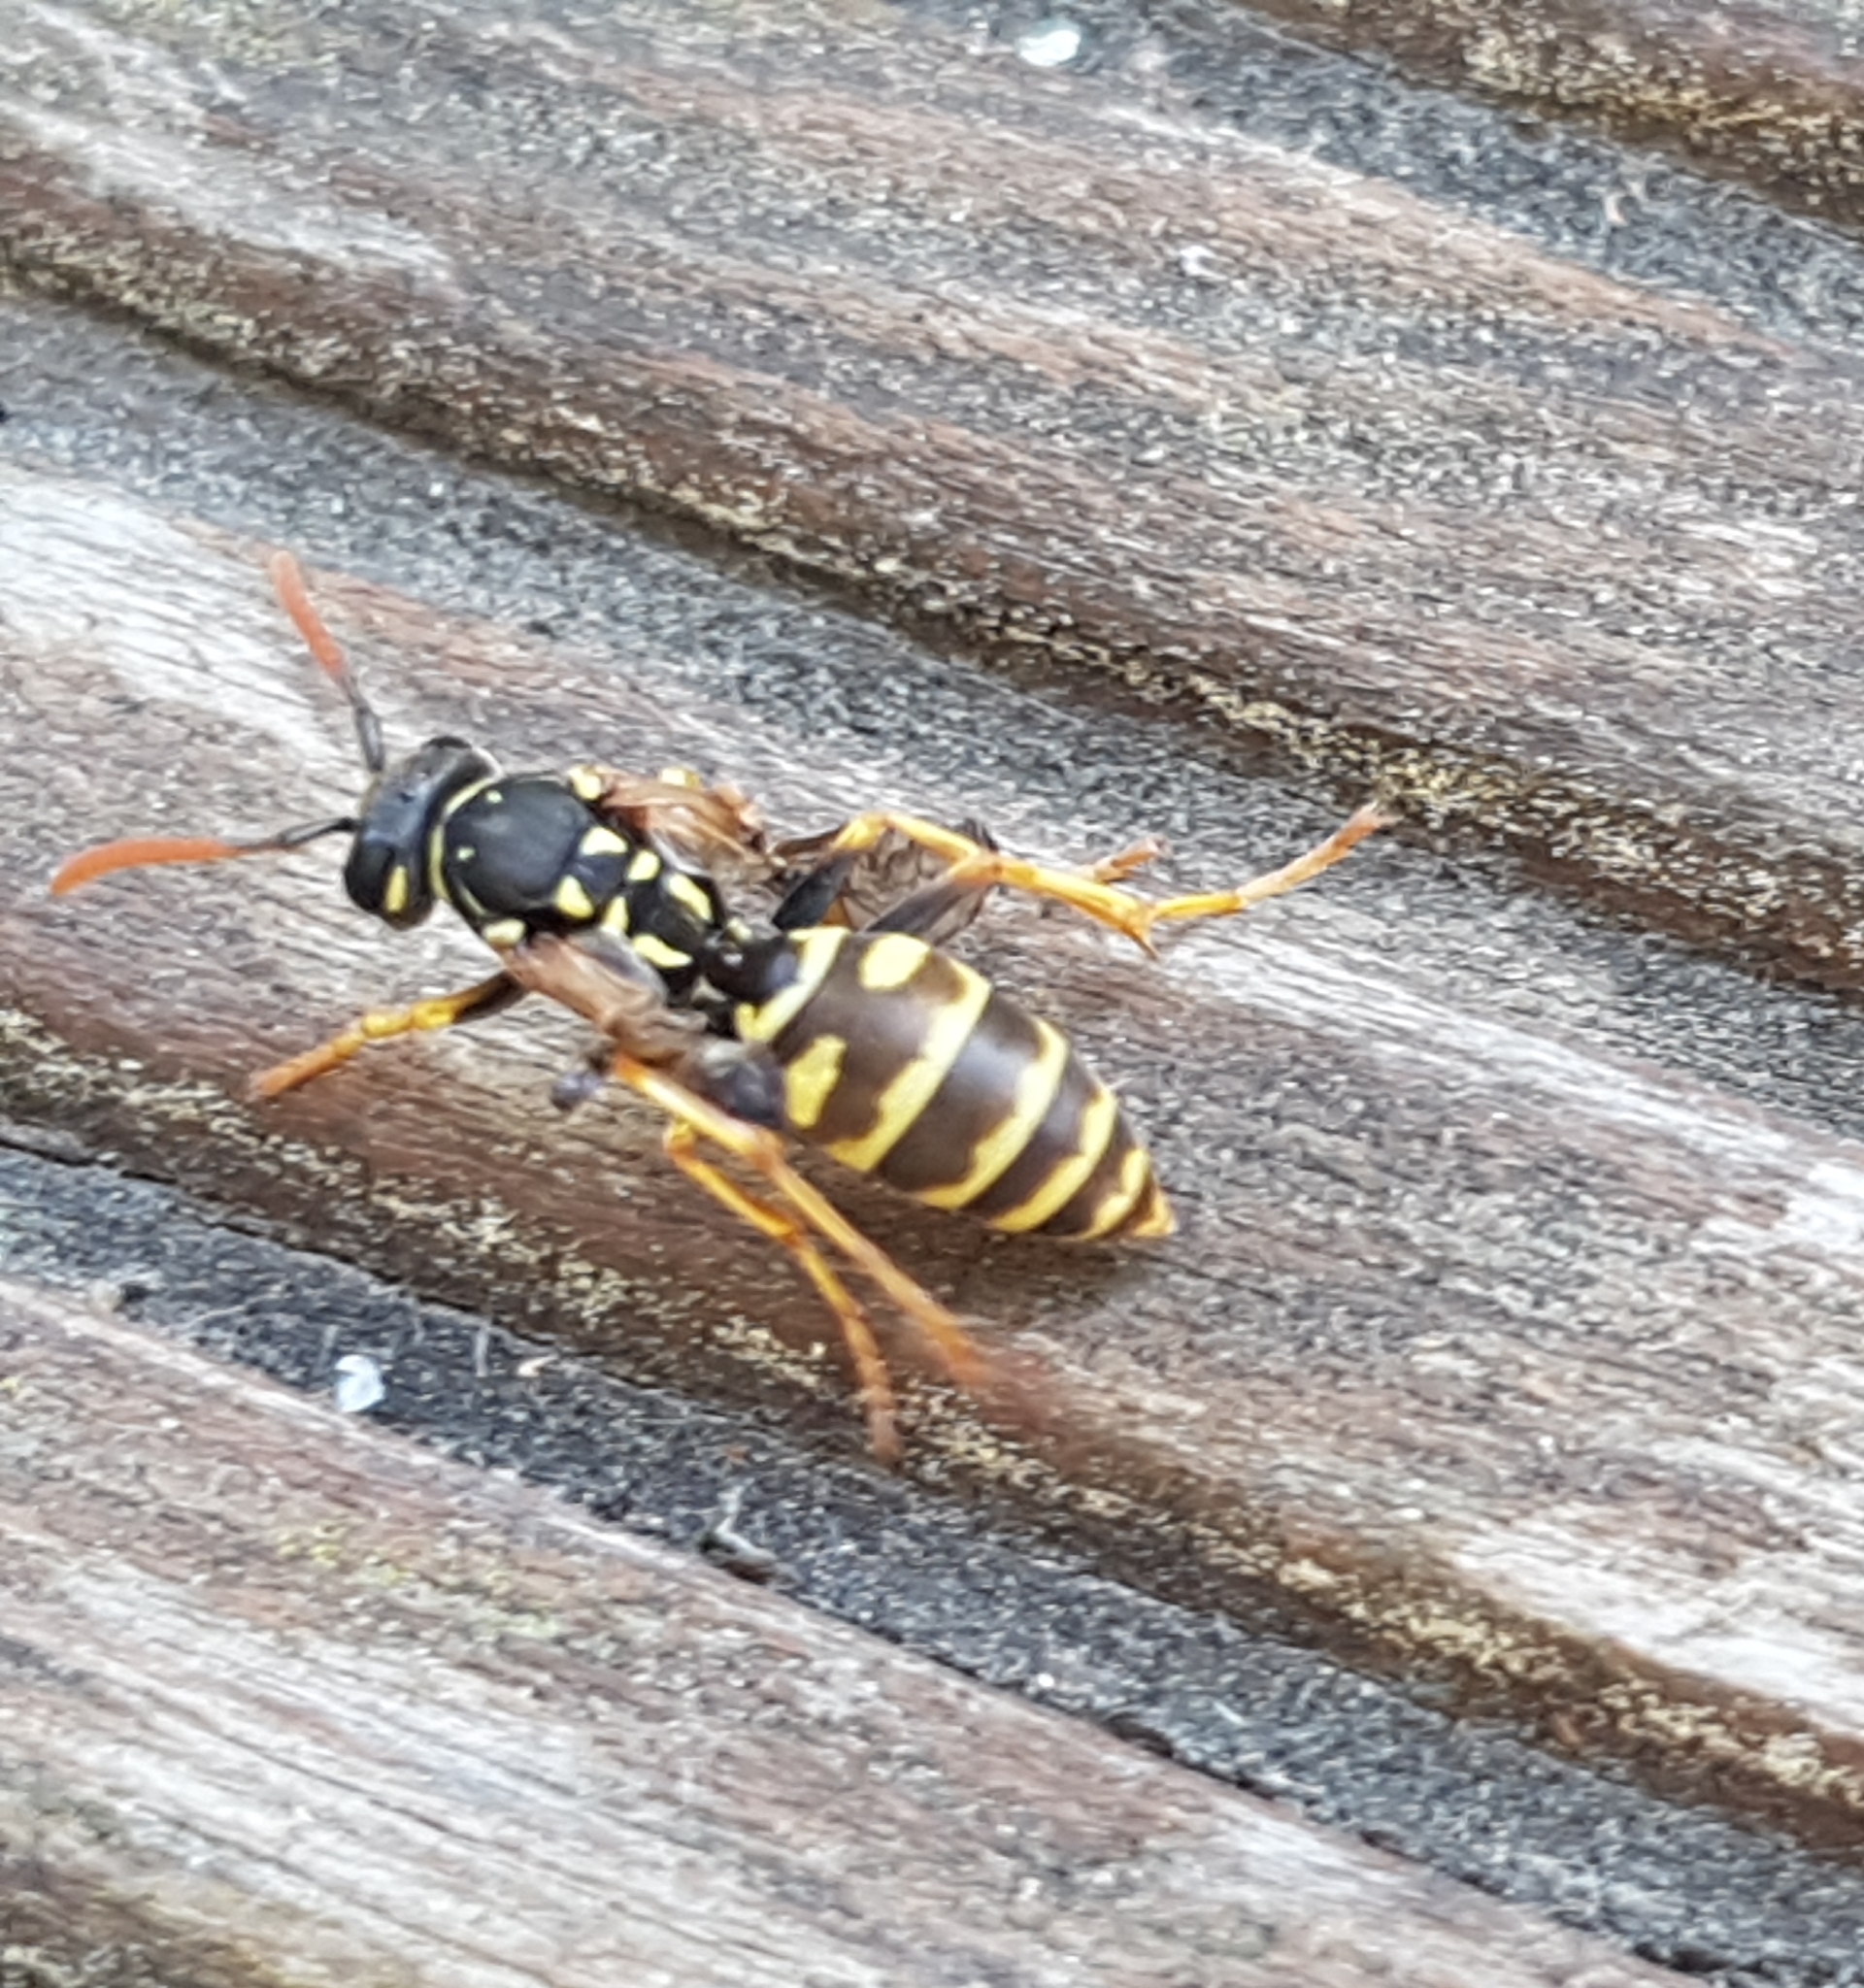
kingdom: Animalia
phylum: Arthropoda
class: Insecta
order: Hymenoptera
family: Eumenidae
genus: Polistes
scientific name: Polistes dominula
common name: Paper wasp
